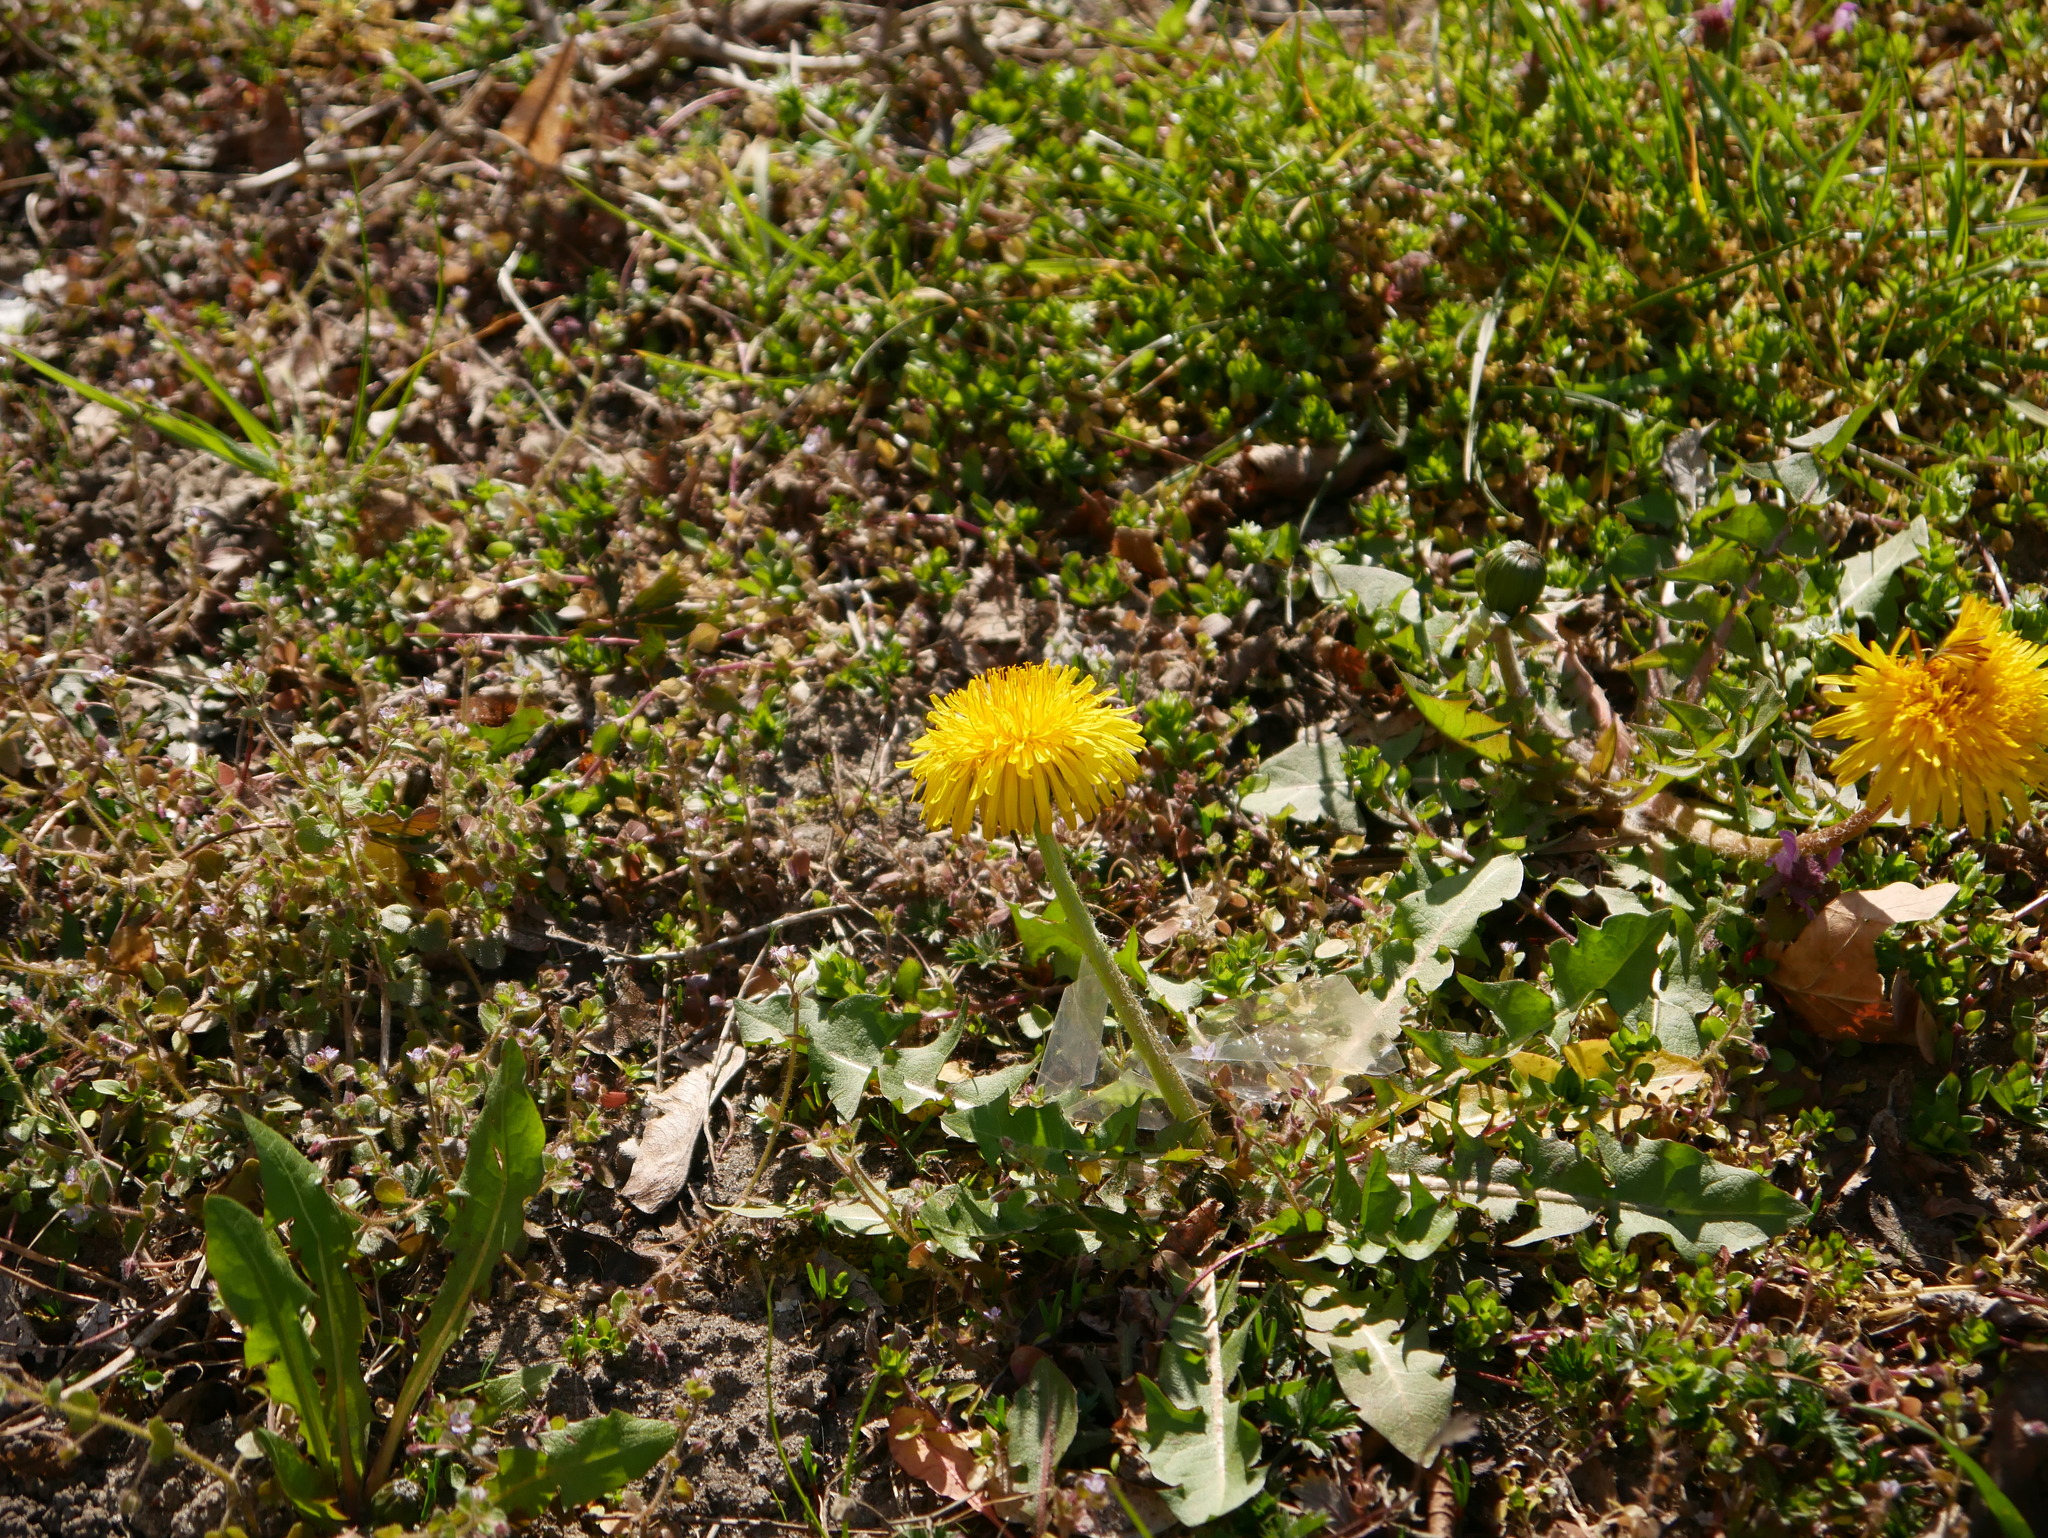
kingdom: Plantae
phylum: Tracheophyta
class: Magnoliopsida
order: Asterales
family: Asteraceae
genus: Taraxacum
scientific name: Taraxacum officinale
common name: Common dandelion
